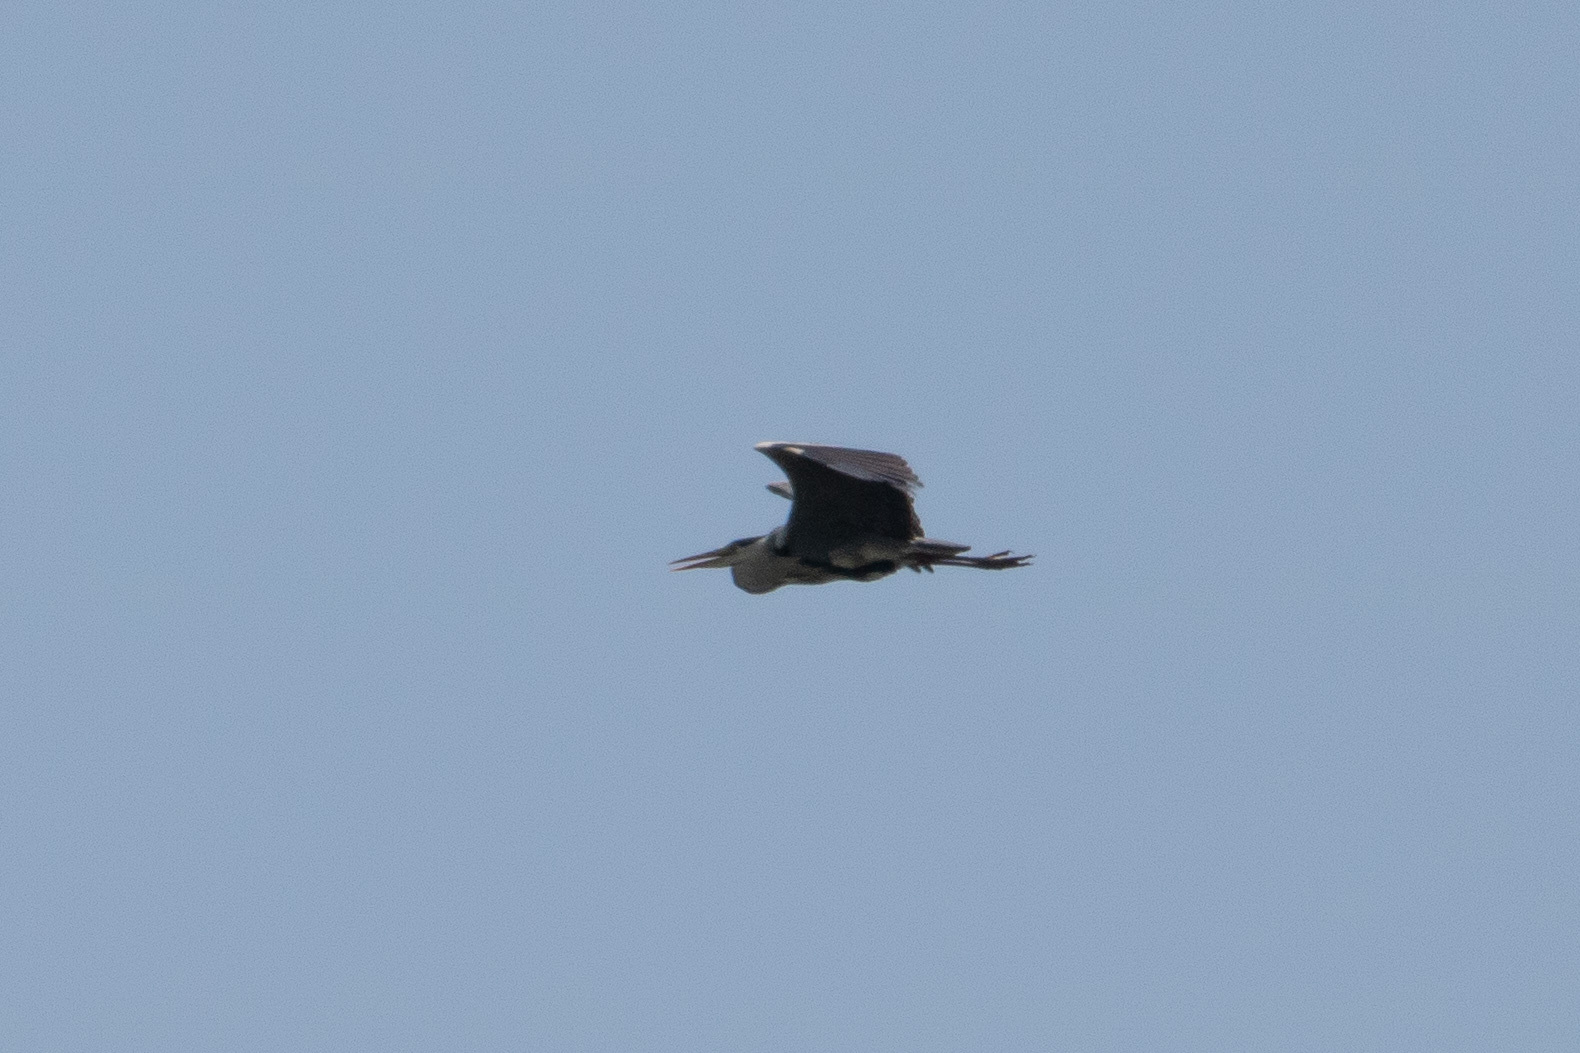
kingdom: Animalia
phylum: Chordata
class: Aves
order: Pelecaniformes
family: Ardeidae
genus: Ardea
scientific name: Ardea cinerea
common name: Grey heron
